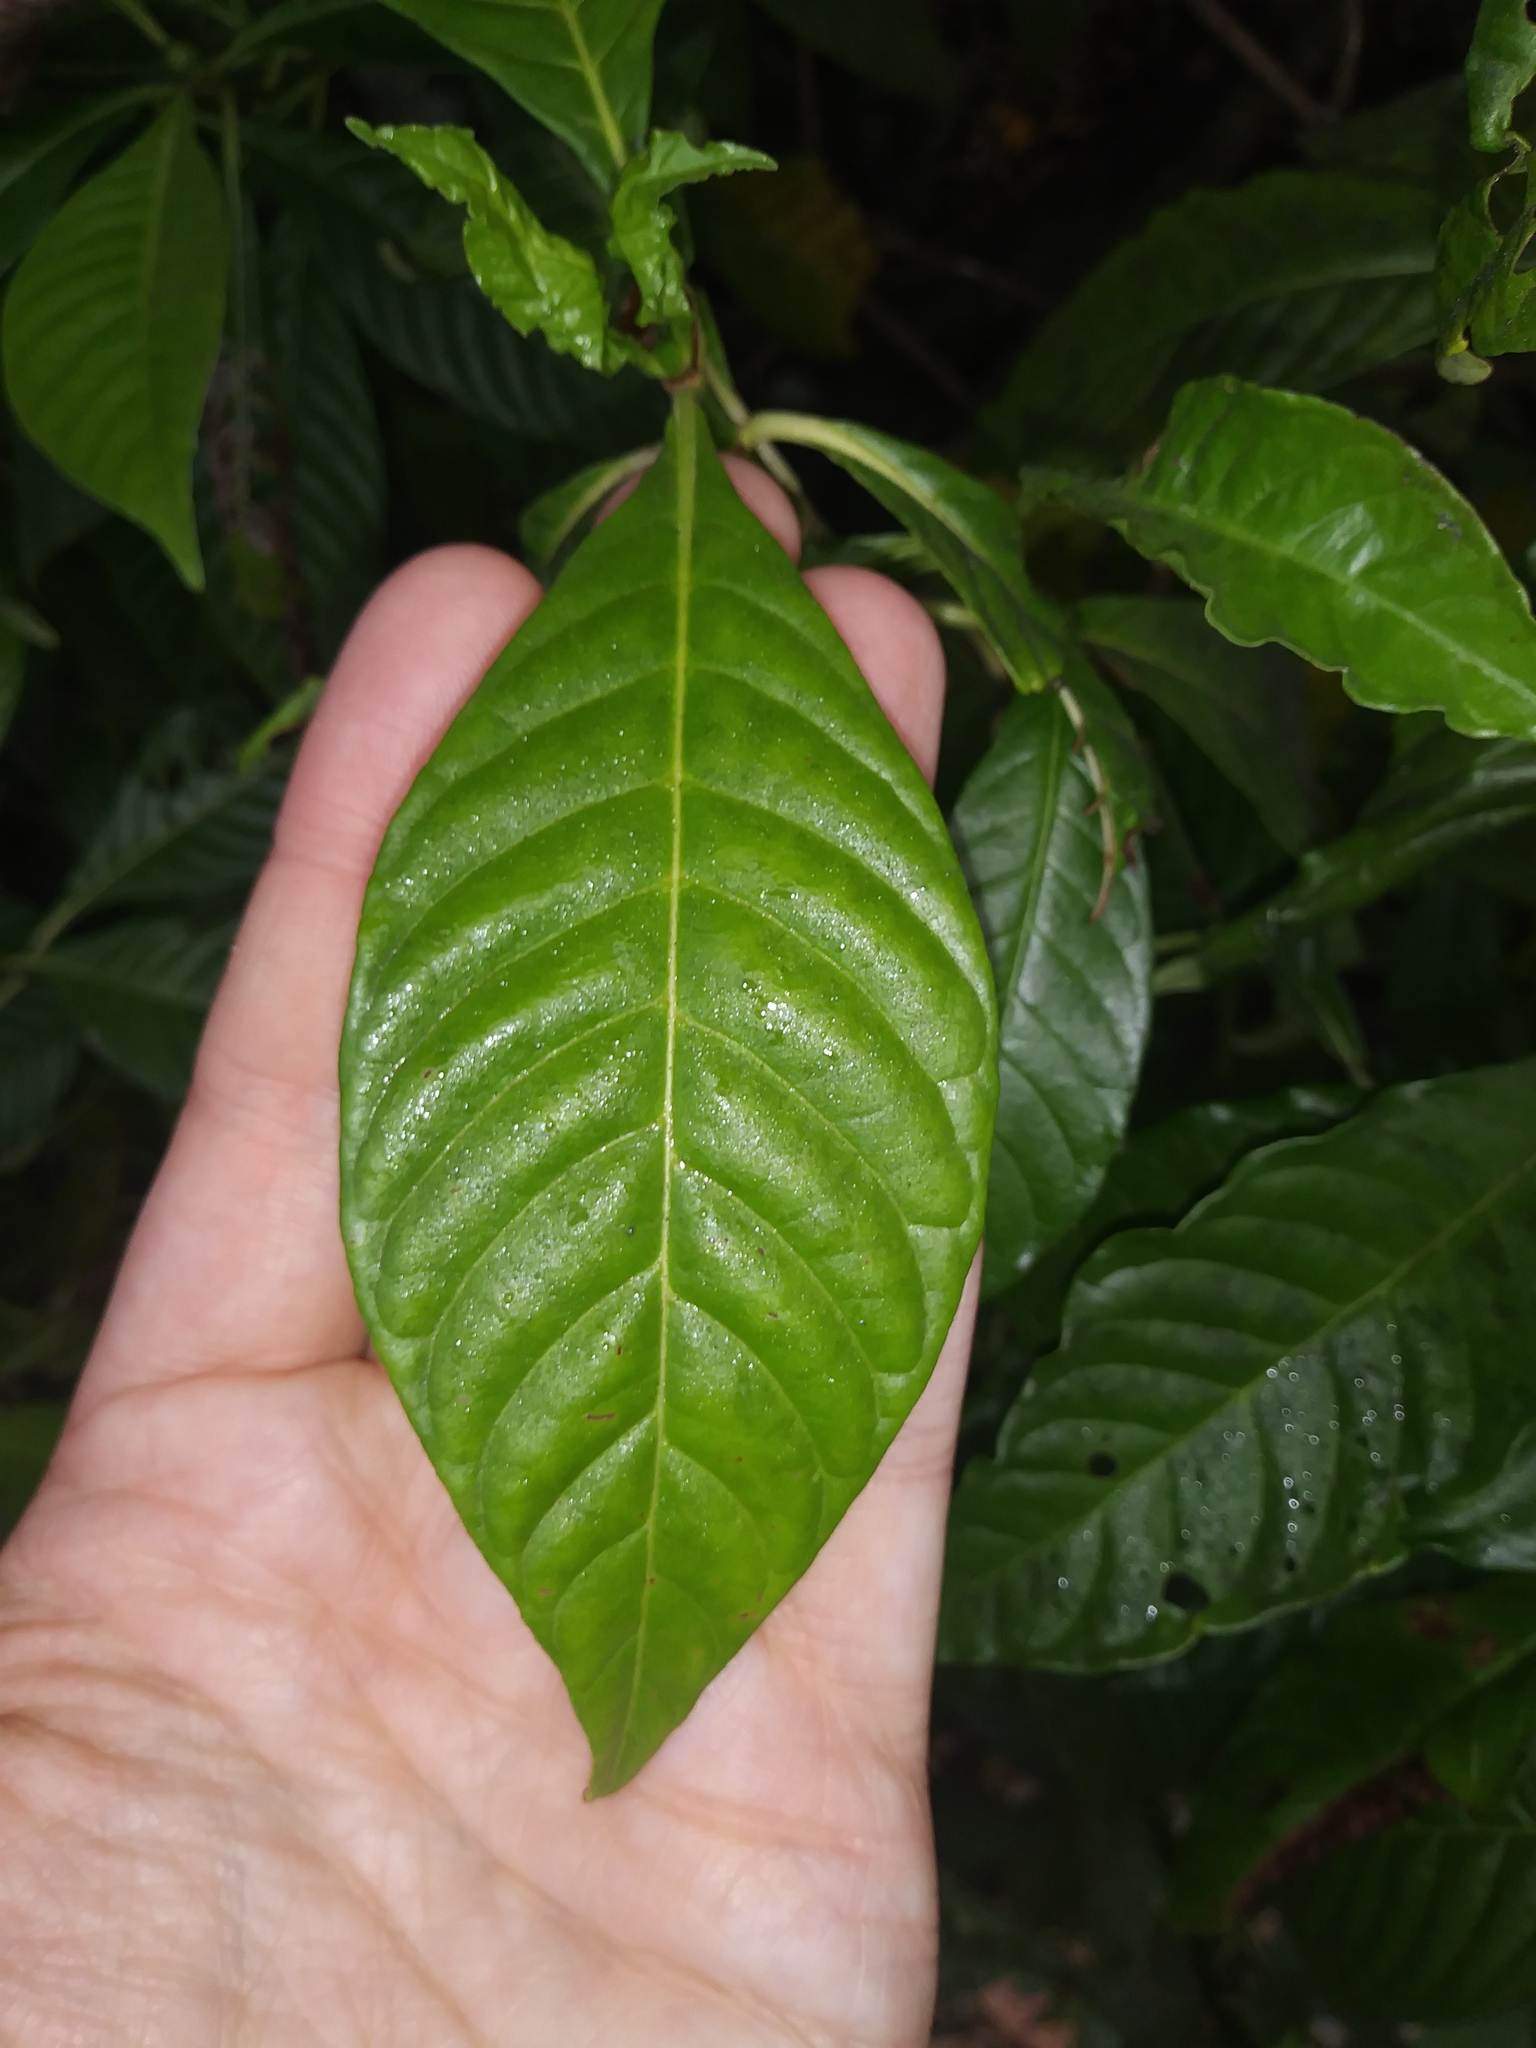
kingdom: Plantae
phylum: Tracheophyta
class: Magnoliopsida
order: Gentianales
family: Rubiaceae
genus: Psychotria
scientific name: Psychotria nervosa
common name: Bastard cankerberry
